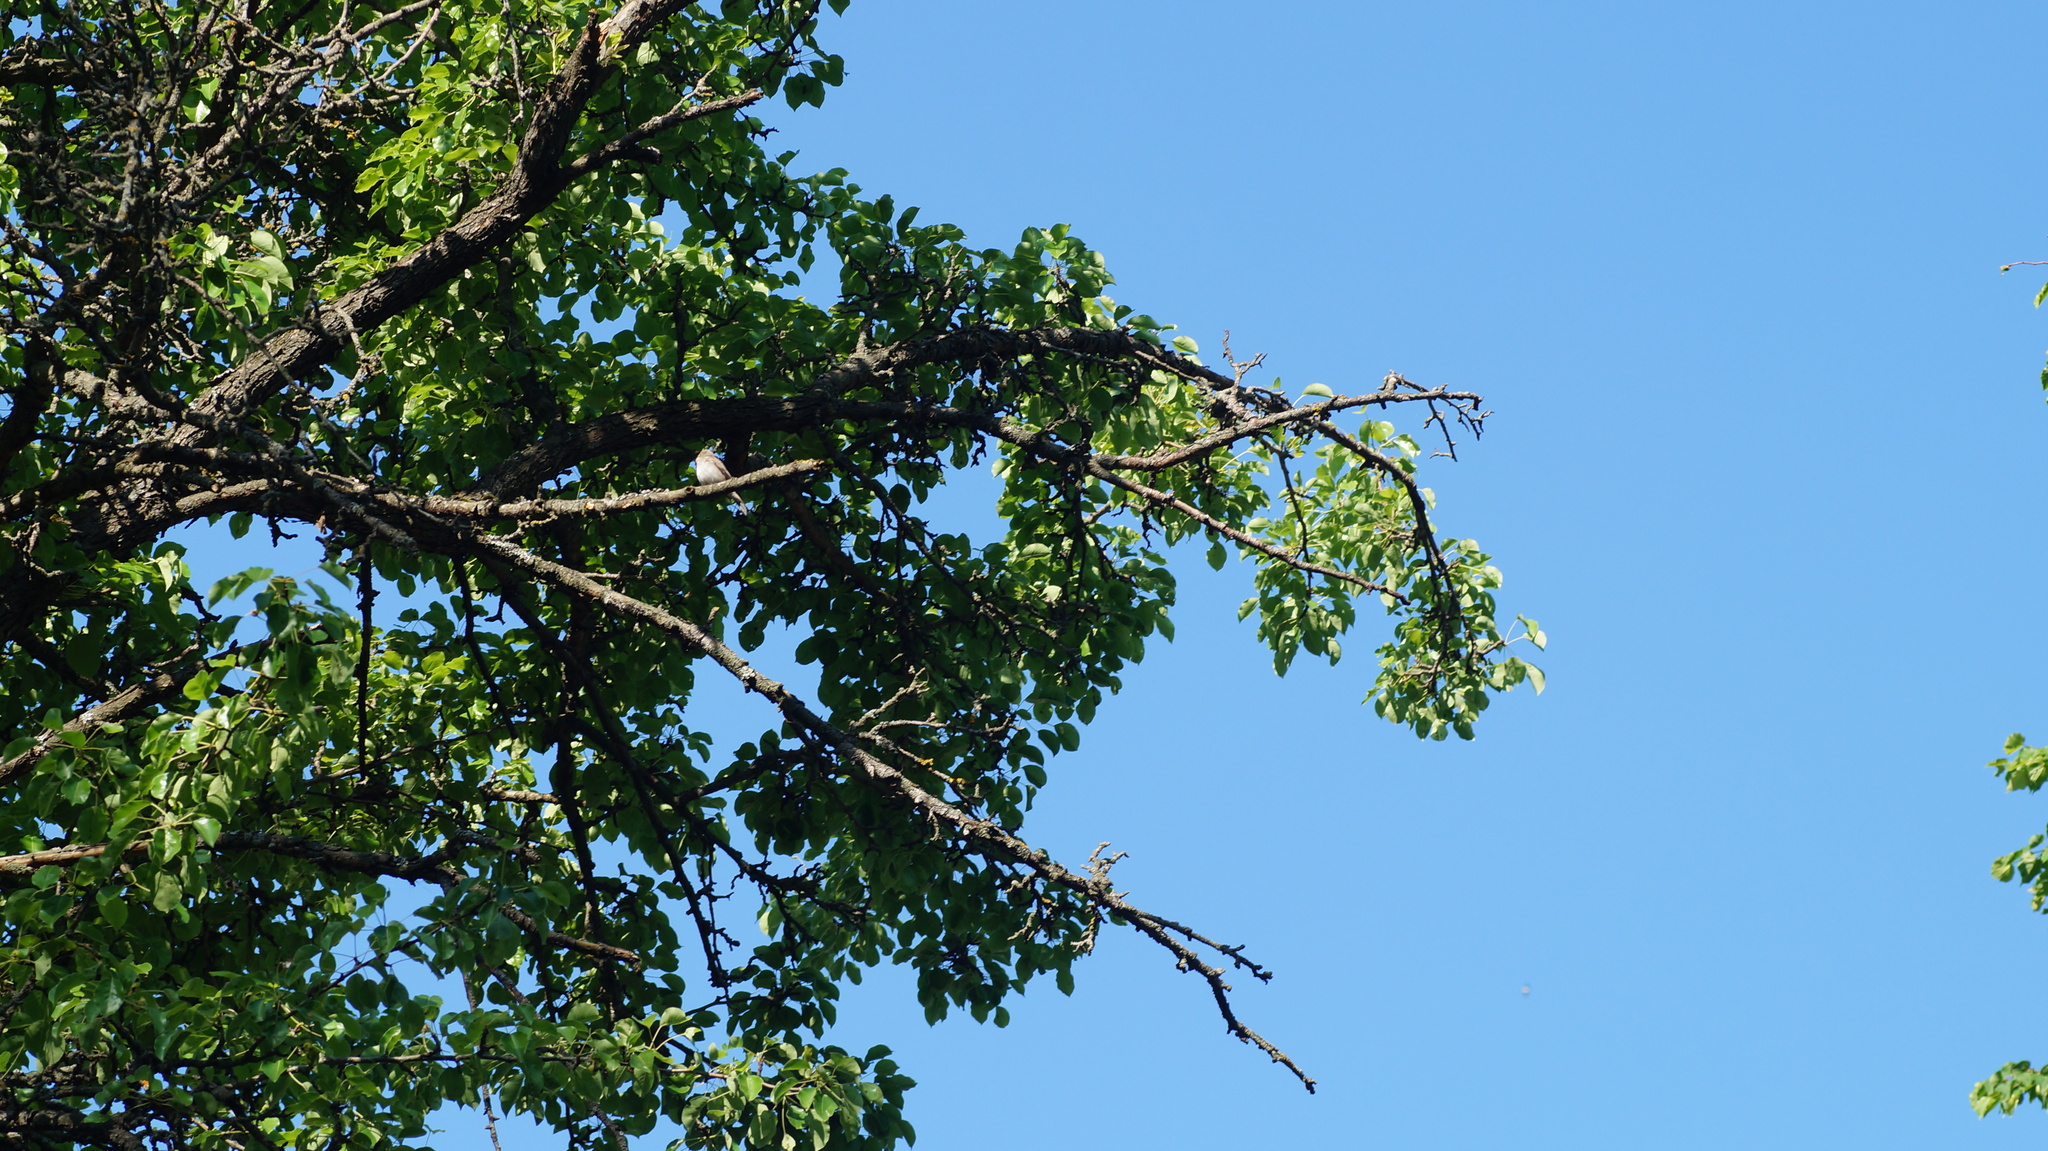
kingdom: Animalia
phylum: Chordata
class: Aves
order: Passeriformes
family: Muscicapidae
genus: Muscicapa
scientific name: Muscicapa striata
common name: Spotted flycatcher
